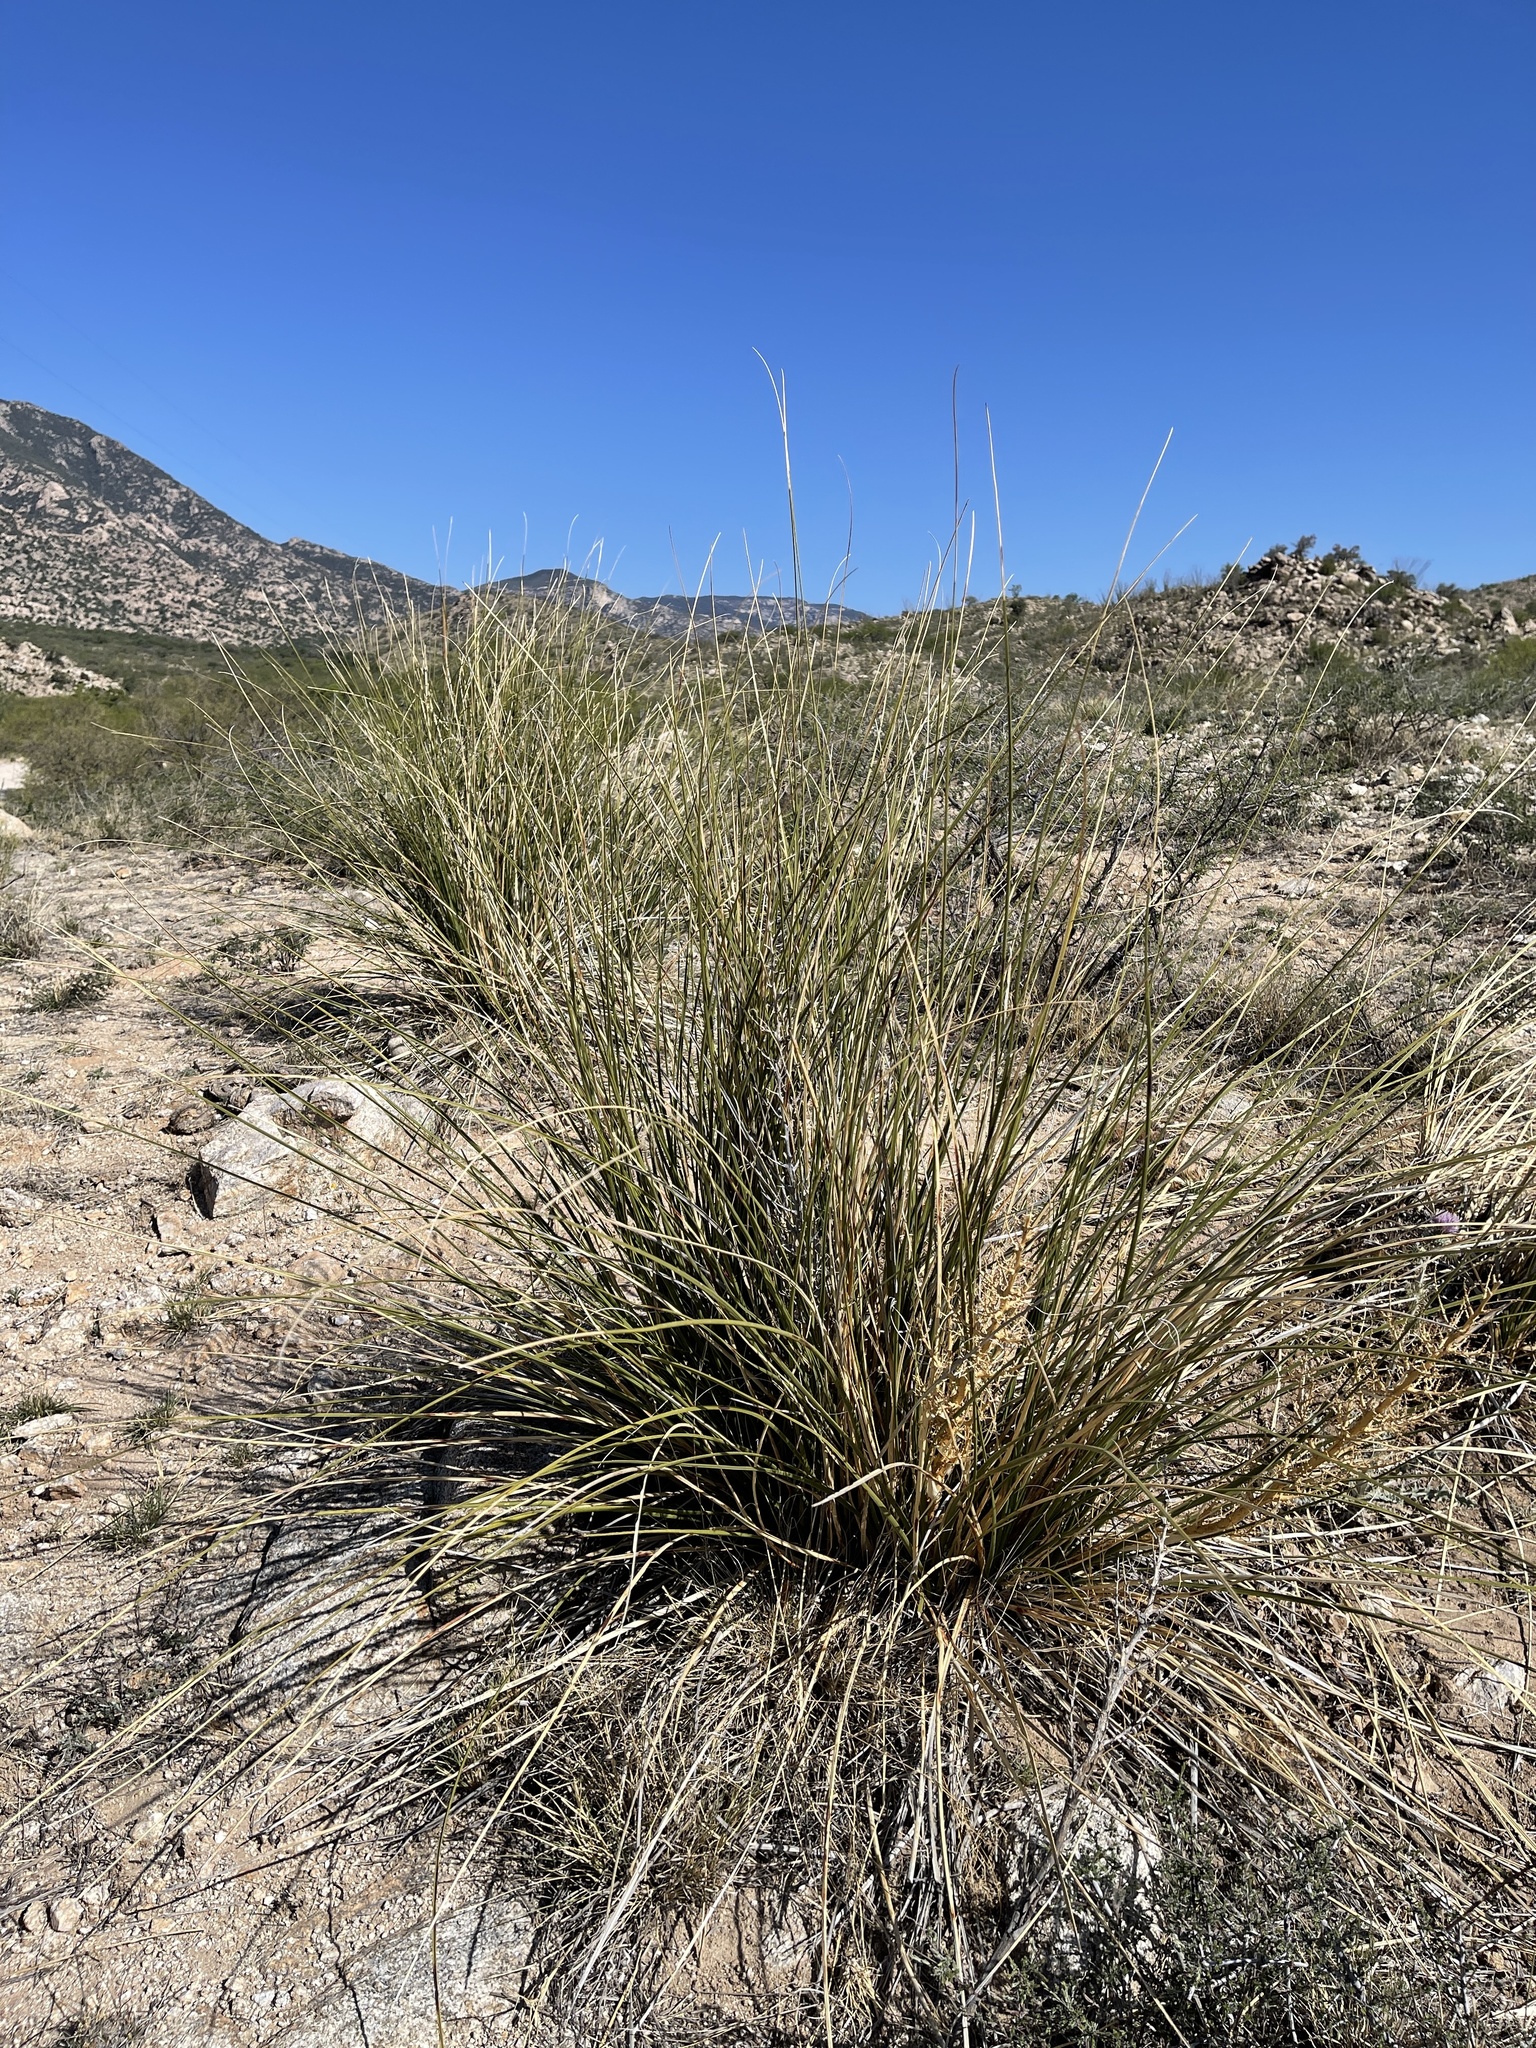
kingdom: Plantae
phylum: Tracheophyta
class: Liliopsida
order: Asparagales
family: Asparagaceae
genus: Nolina
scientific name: Nolina microcarpa
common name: Bear-grass
